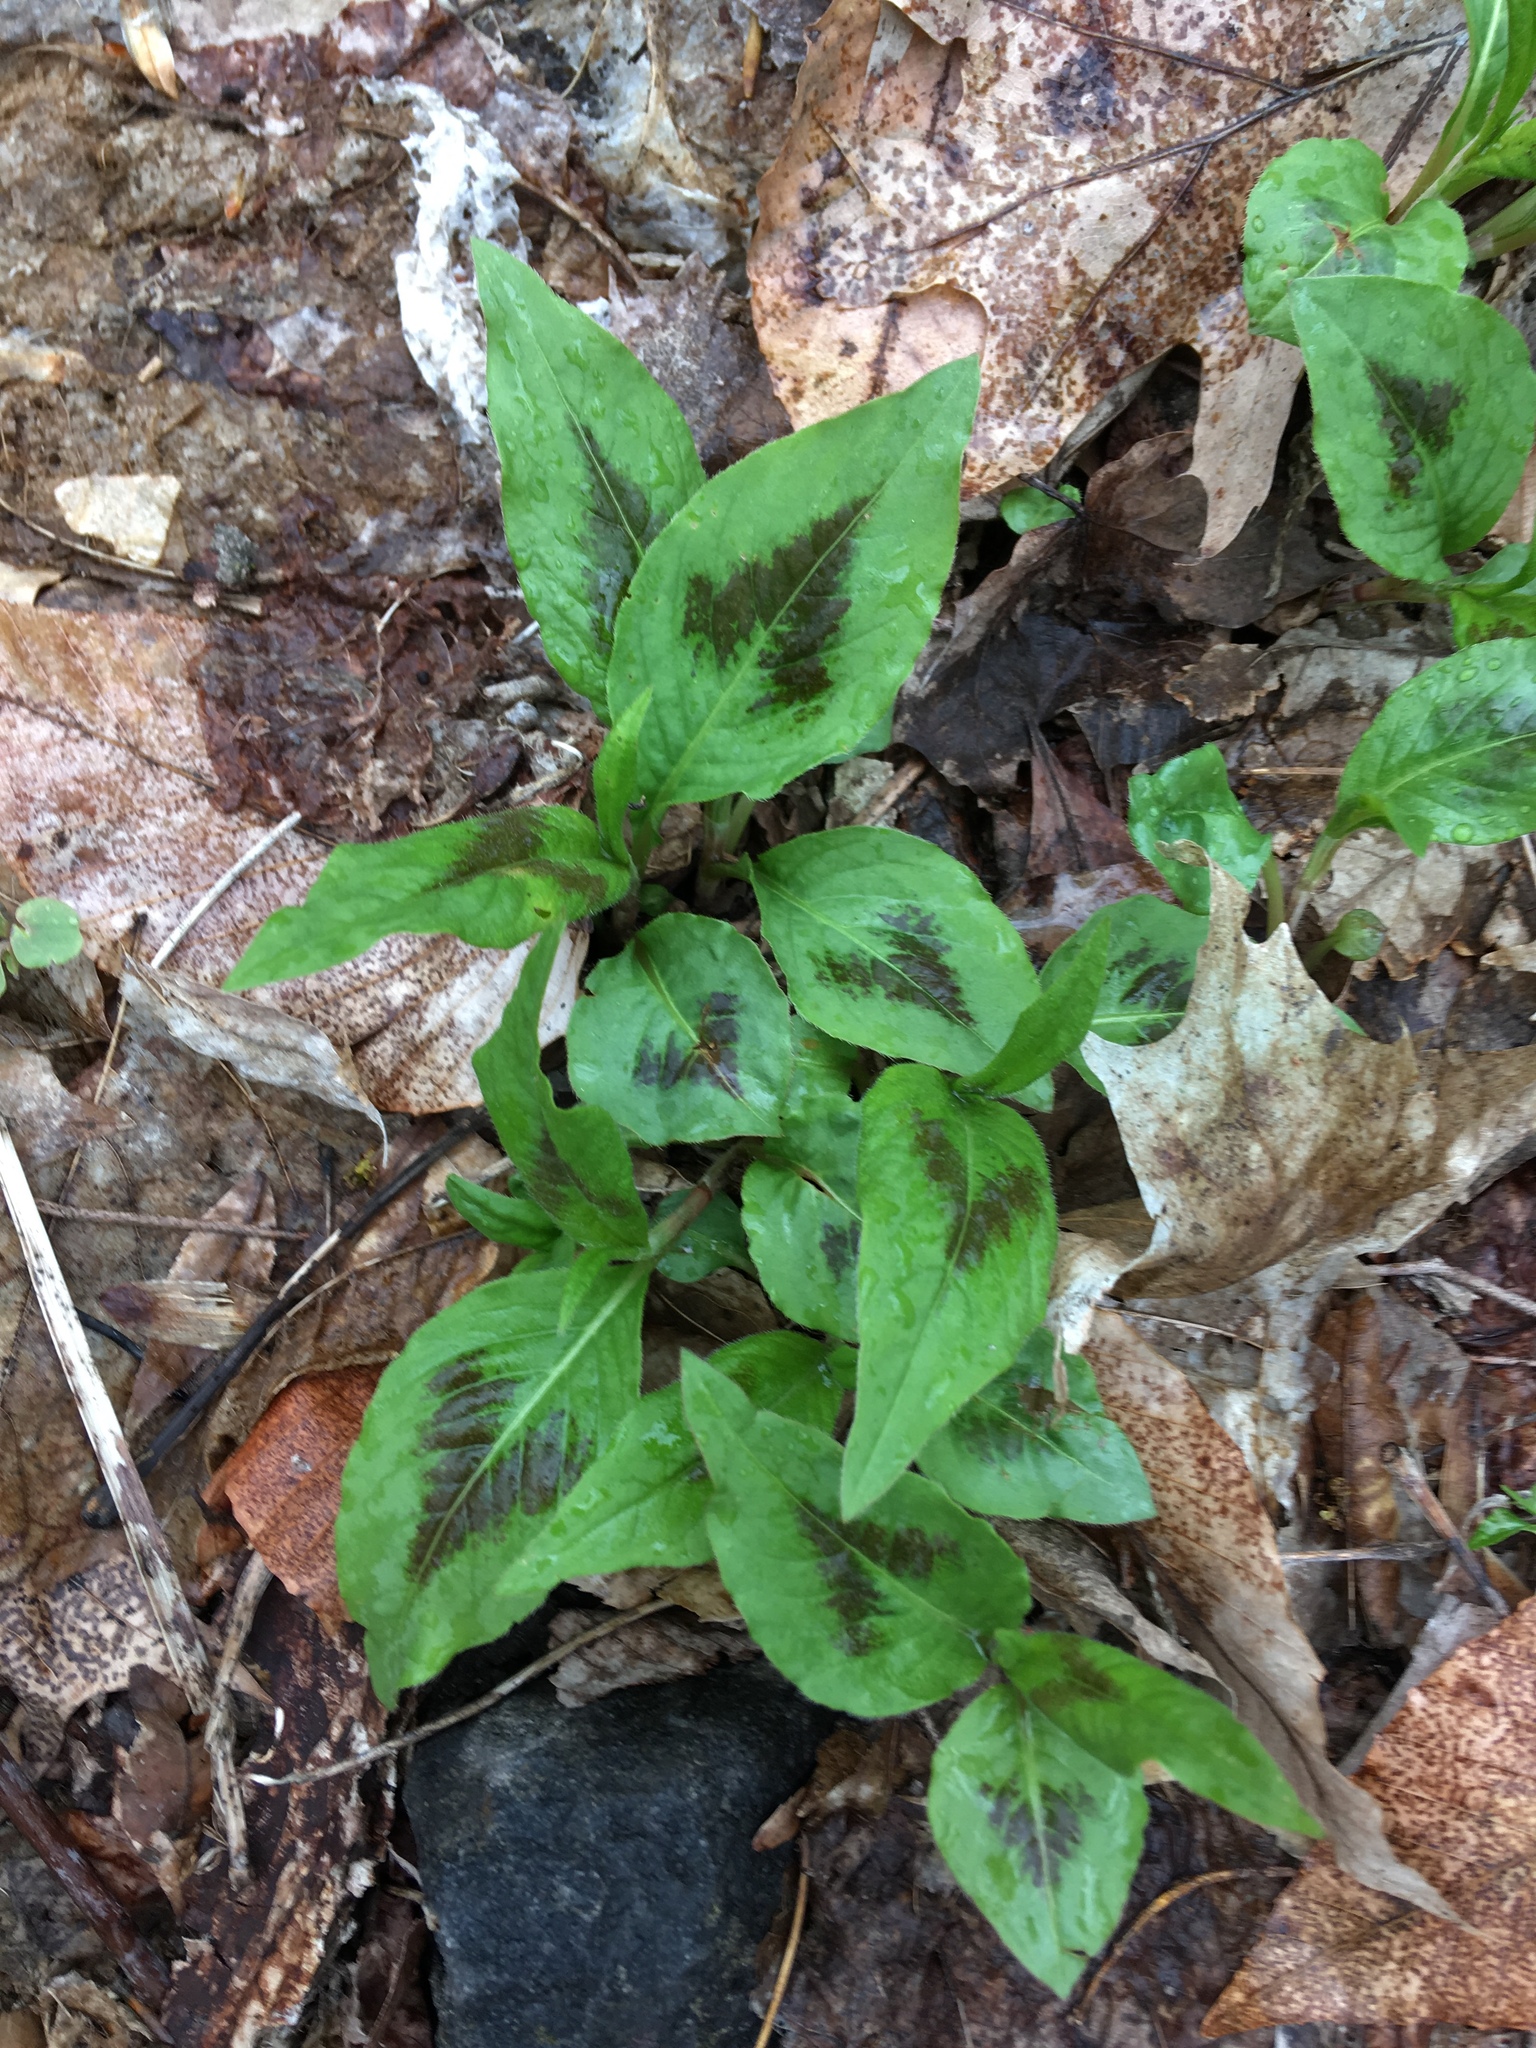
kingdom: Plantae
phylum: Tracheophyta
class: Magnoliopsida
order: Caryophyllales
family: Polygonaceae
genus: Persicaria
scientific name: Persicaria virginiana
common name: Jumpseed
